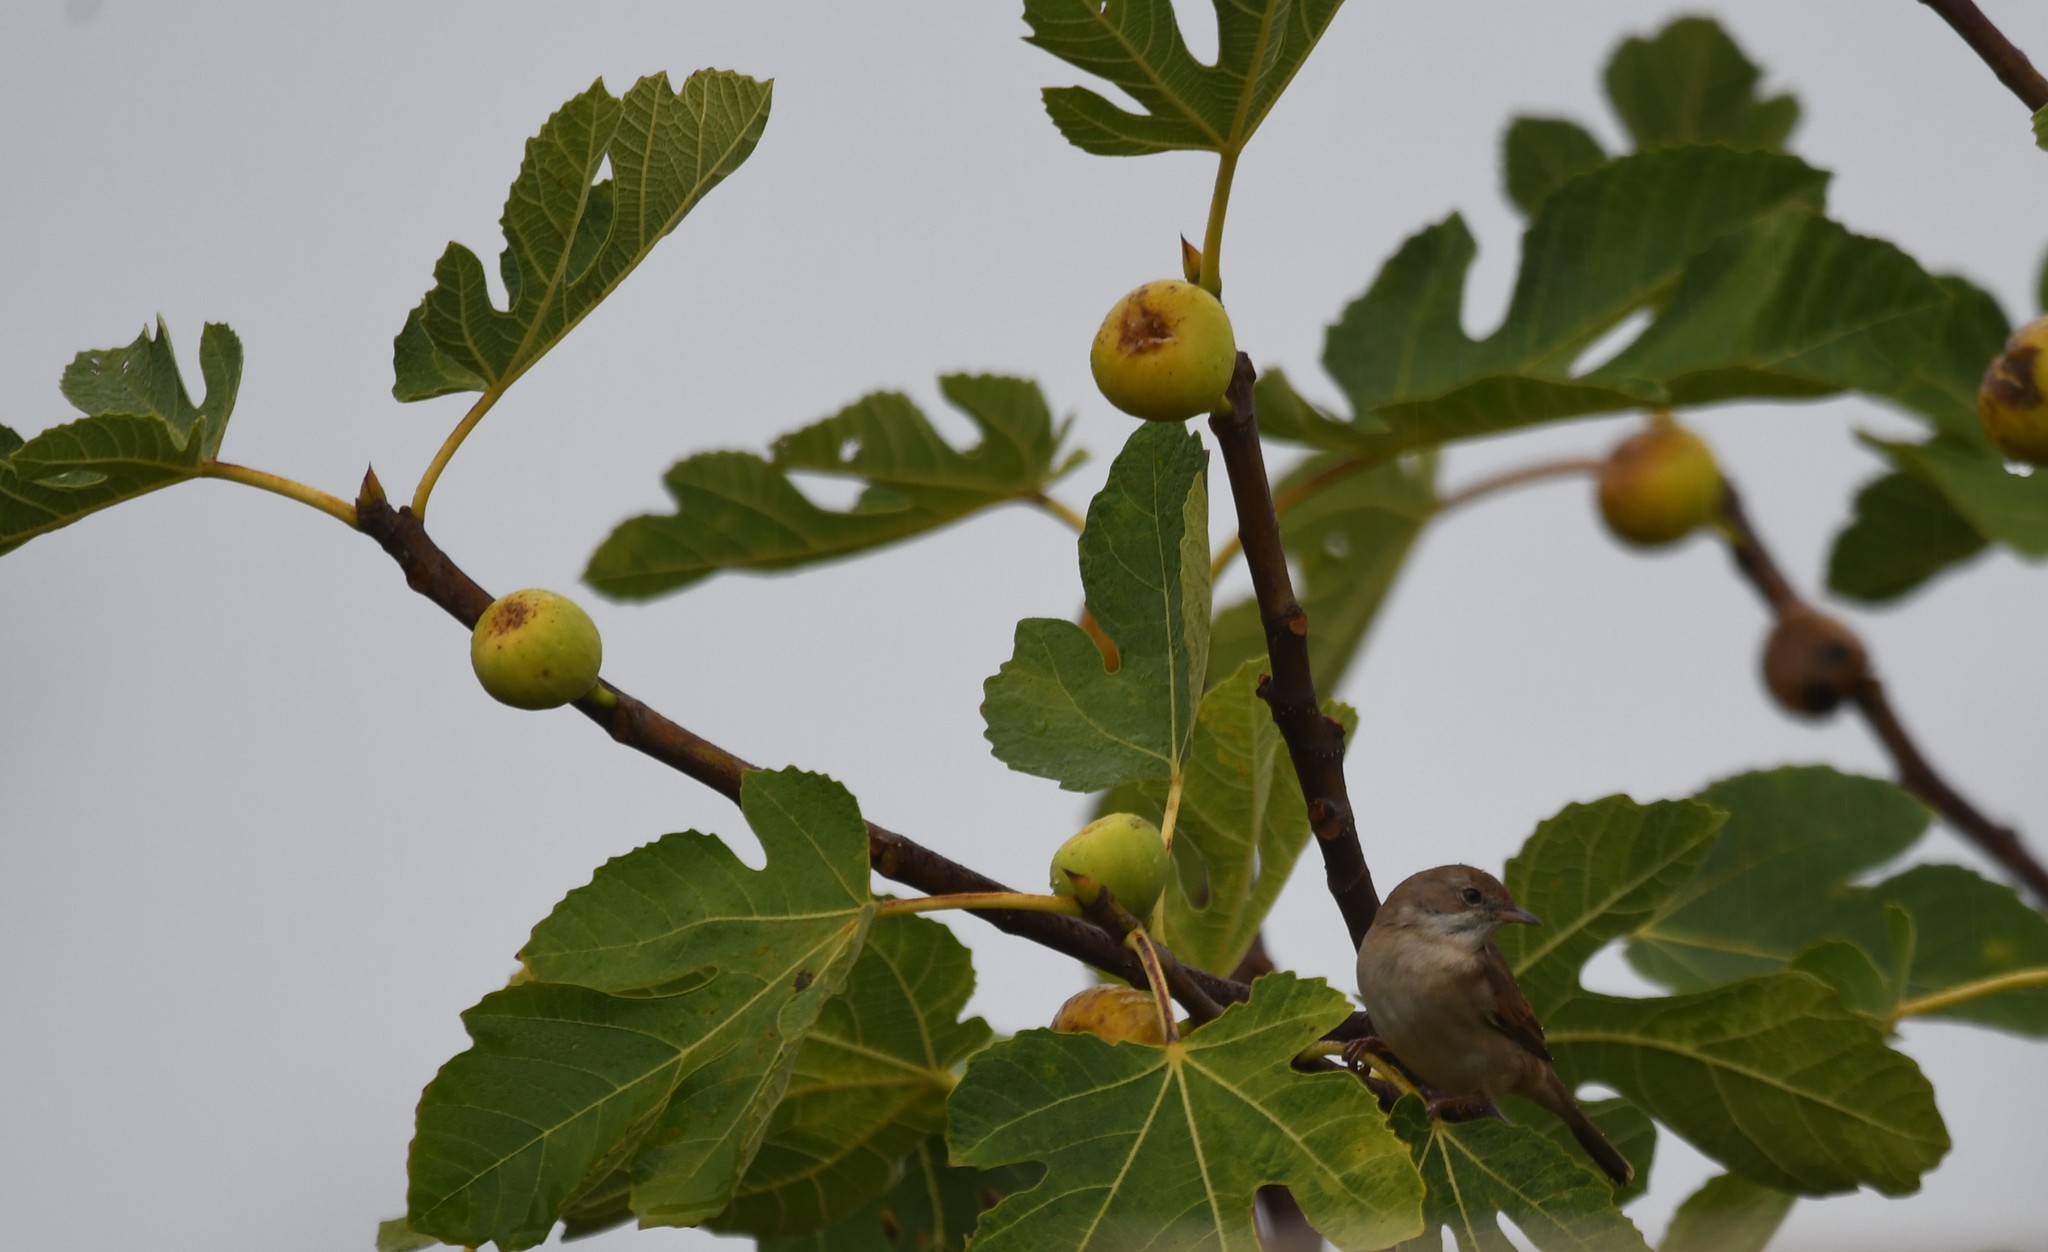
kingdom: Animalia
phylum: Chordata
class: Aves
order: Passeriformes
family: Sylviidae
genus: Sylvia
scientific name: Sylvia communis
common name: Common whitethroat
